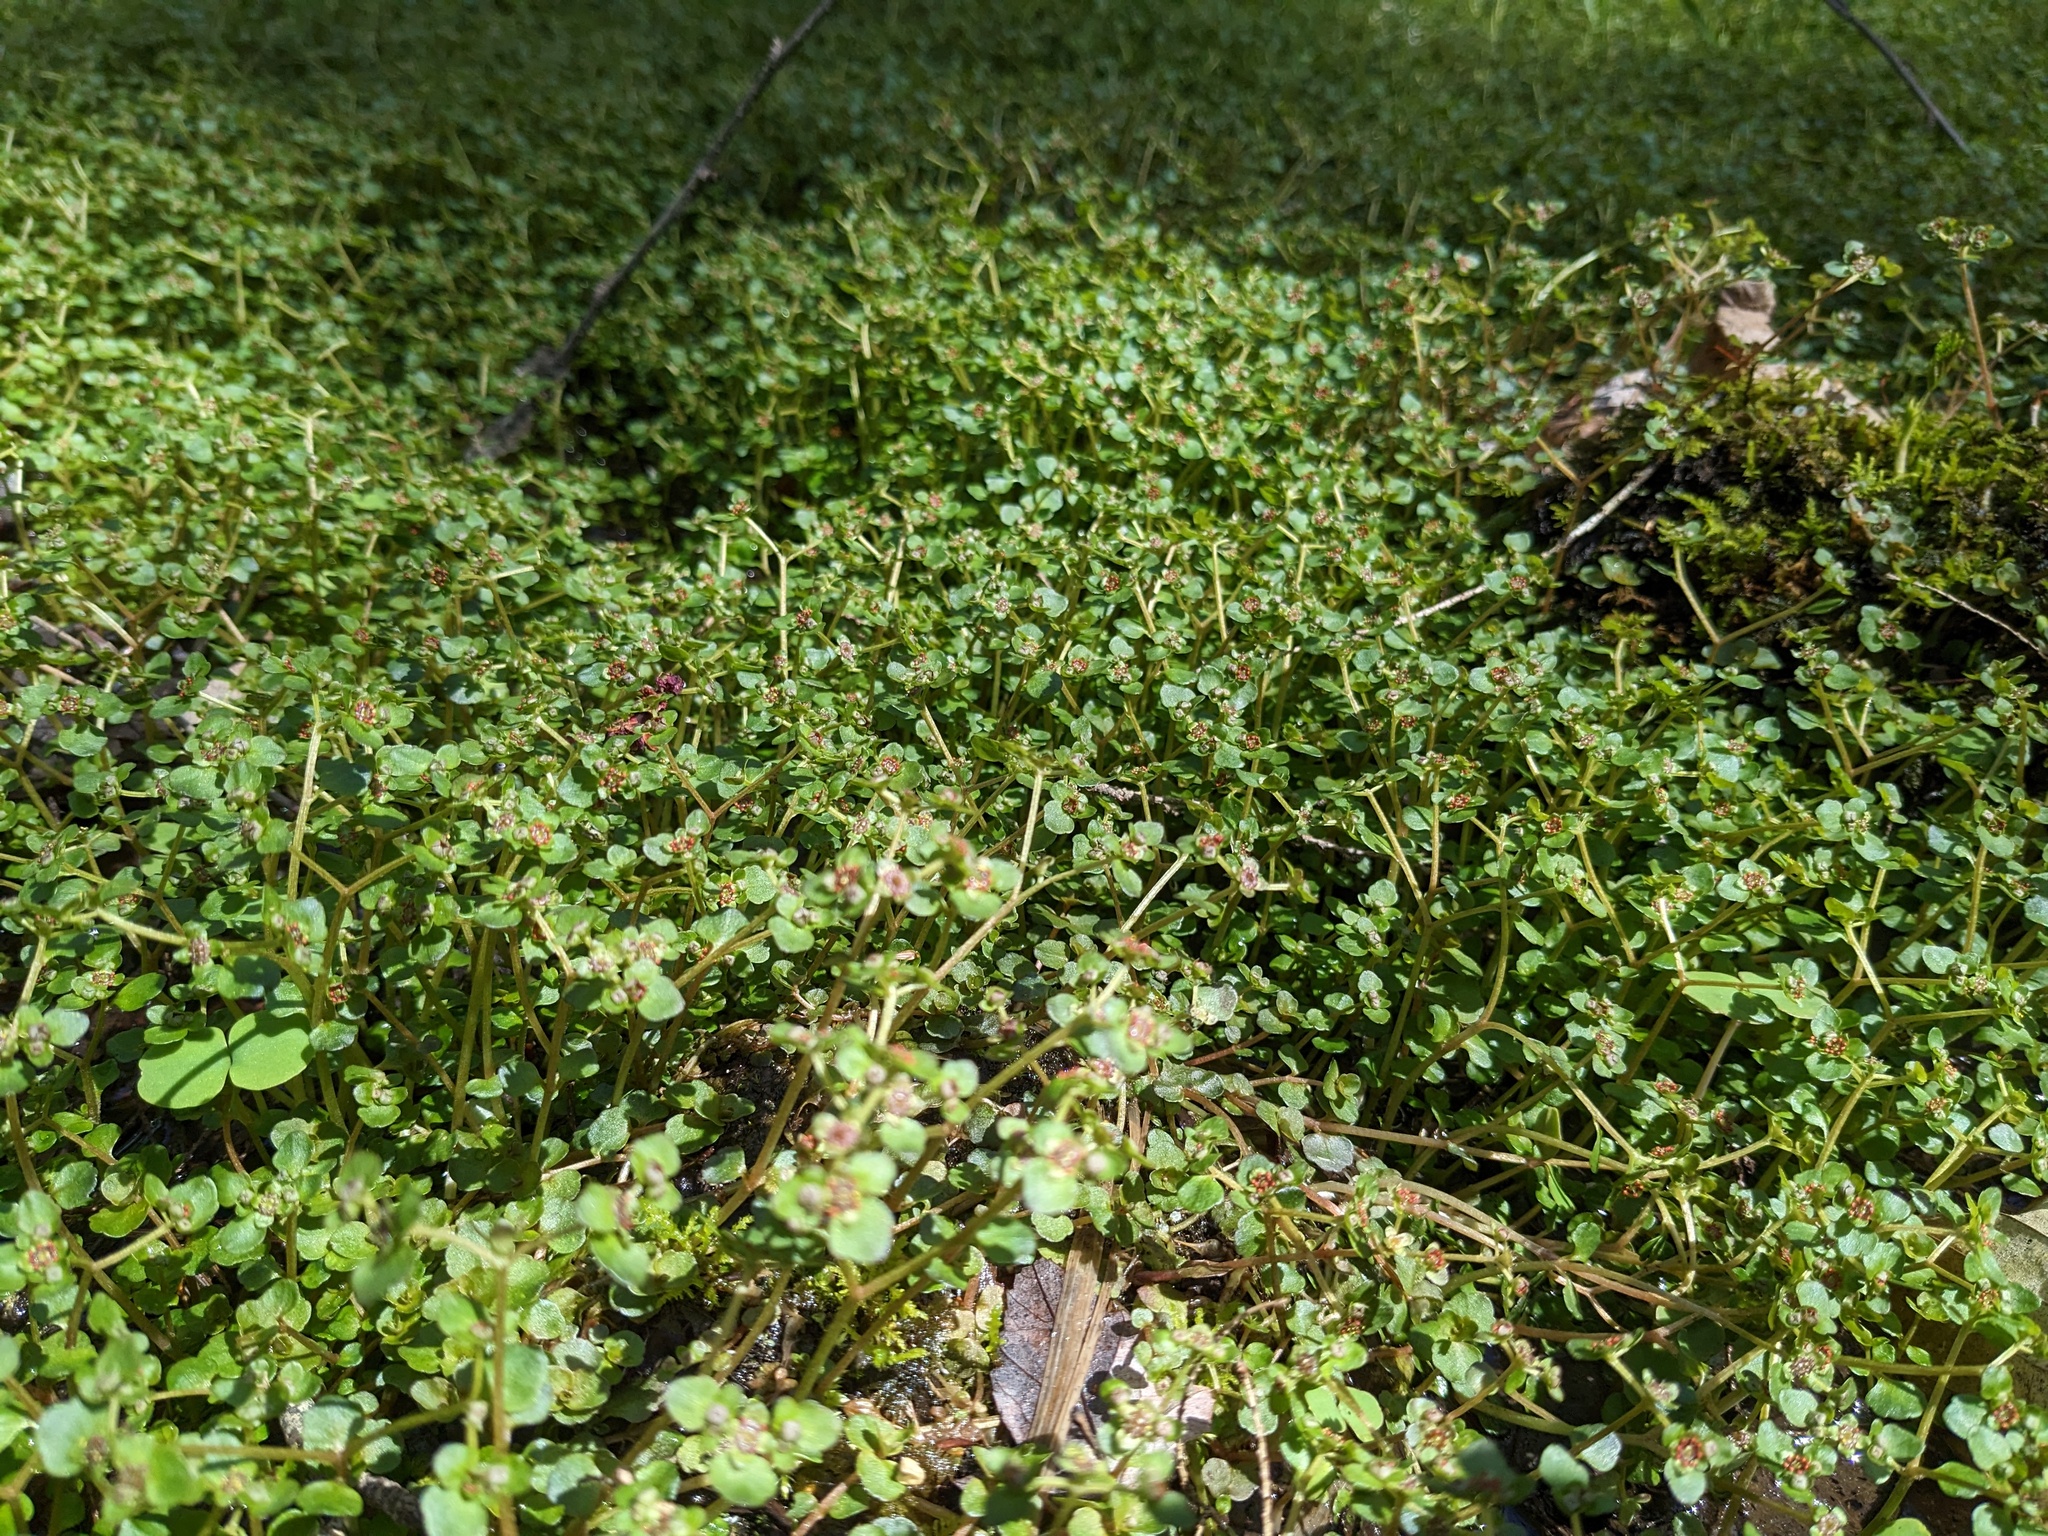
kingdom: Plantae
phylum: Tracheophyta
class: Magnoliopsida
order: Saxifragales
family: Saxifragaceae
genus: Chrysosplenium
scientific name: Chrysosplenium americanum
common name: American golden-saxifrage
